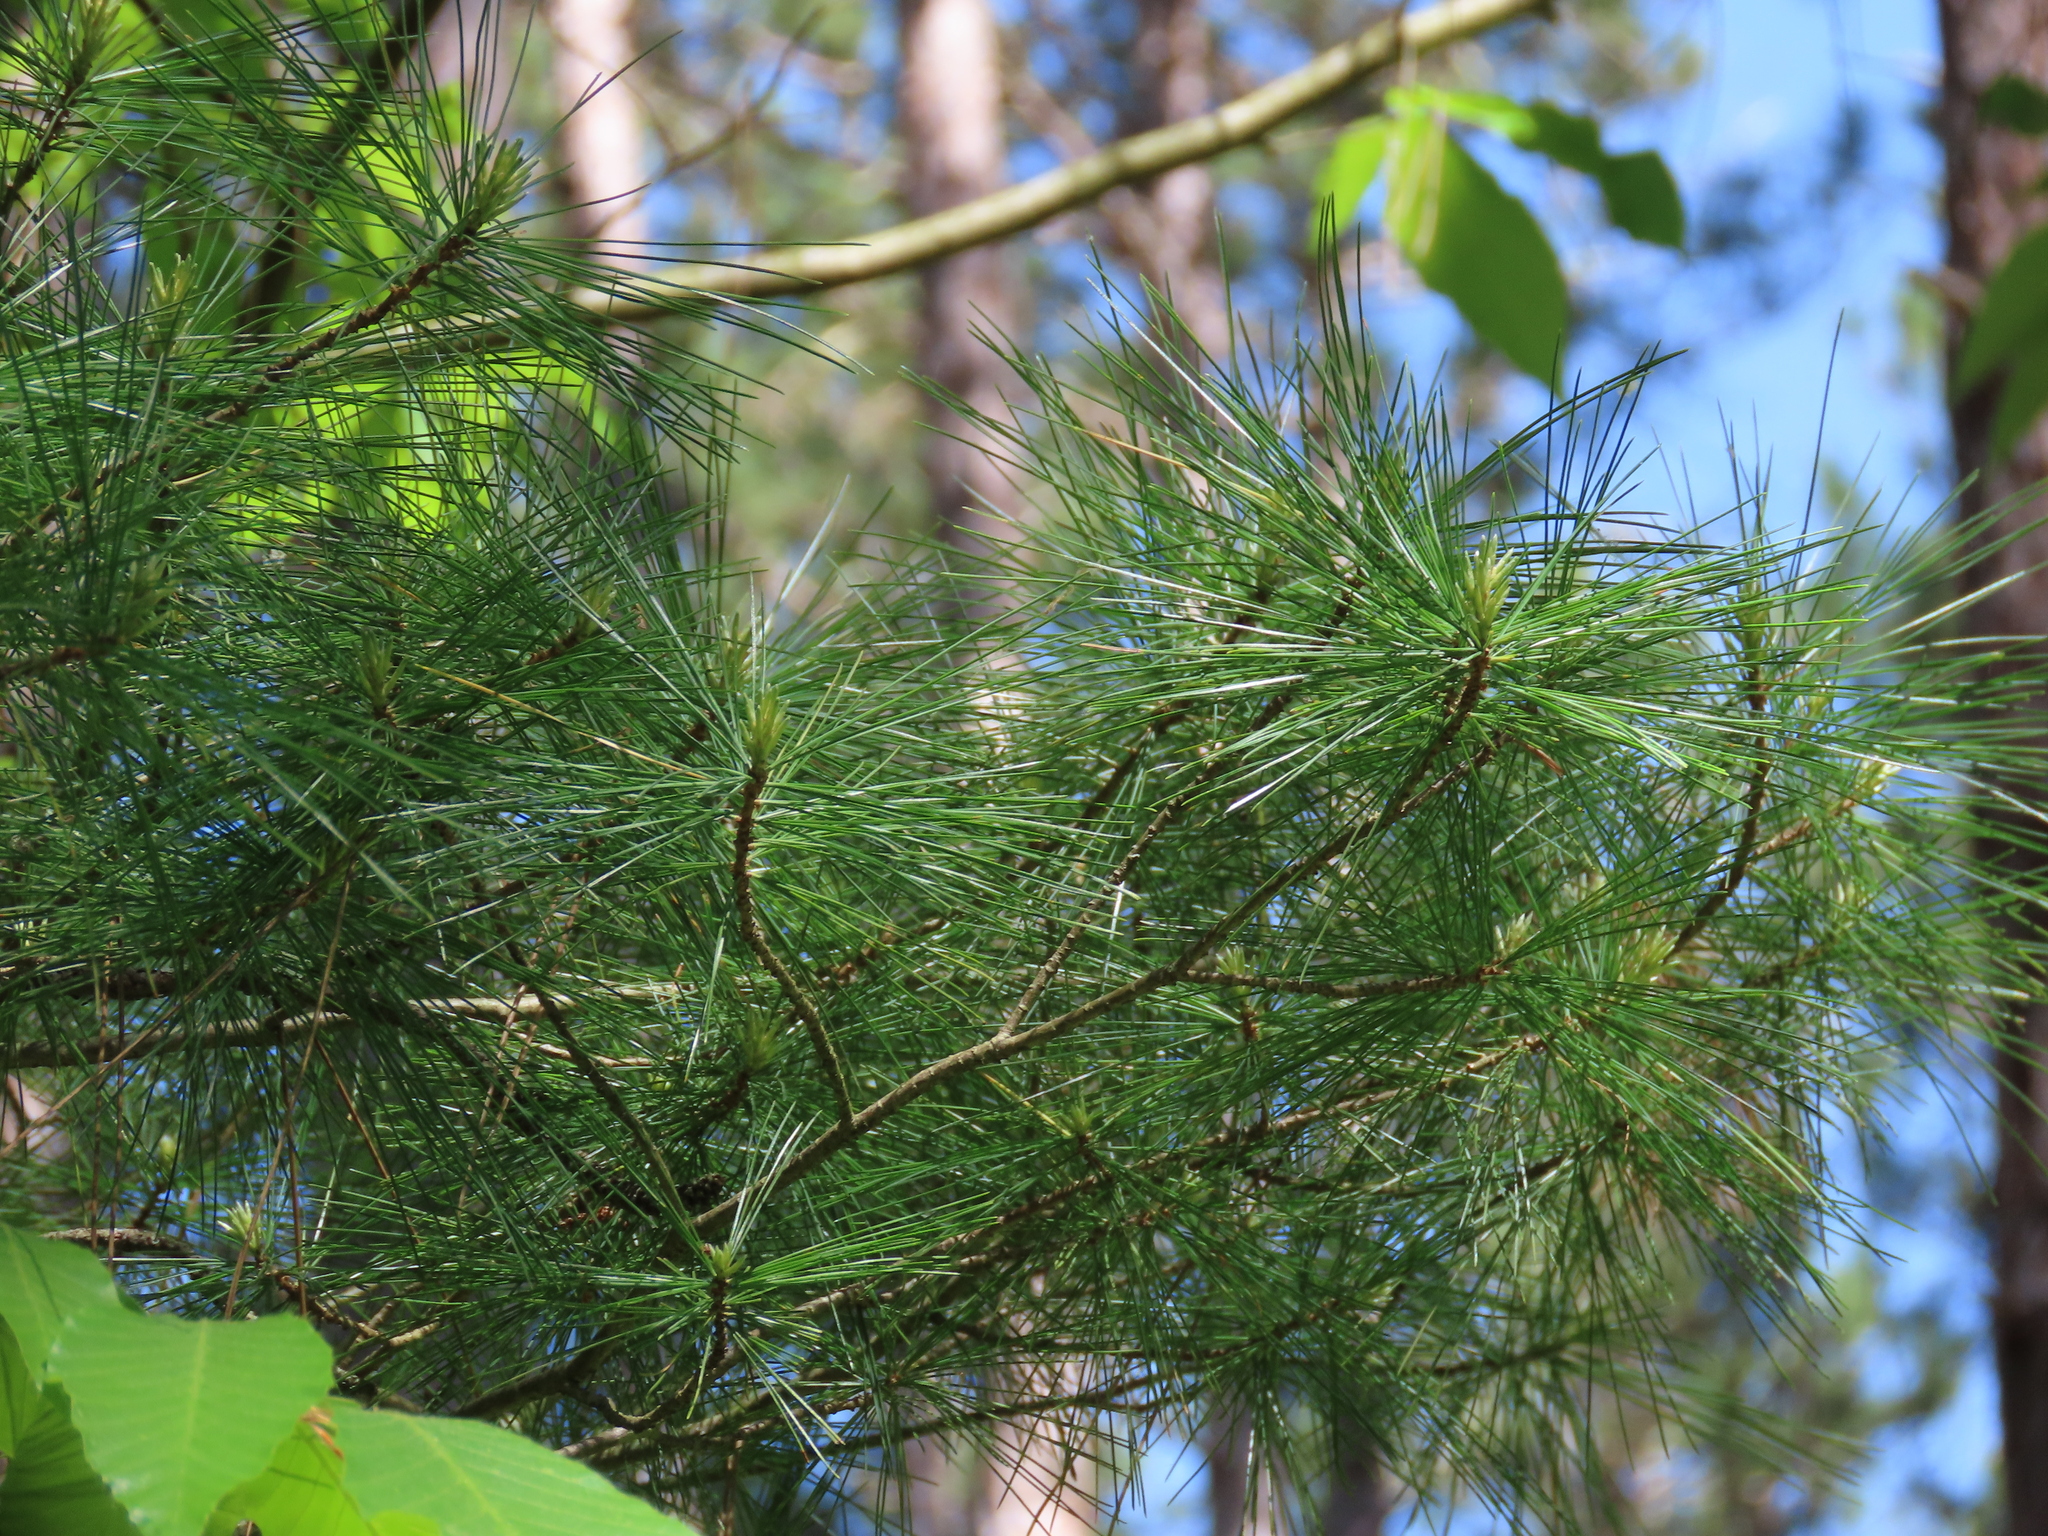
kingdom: Plantae
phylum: Tracheophyta
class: Pinopsida
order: Pinales
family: Pinaceae
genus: Pinus
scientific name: Pinus strobus
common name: Weymouth pine
